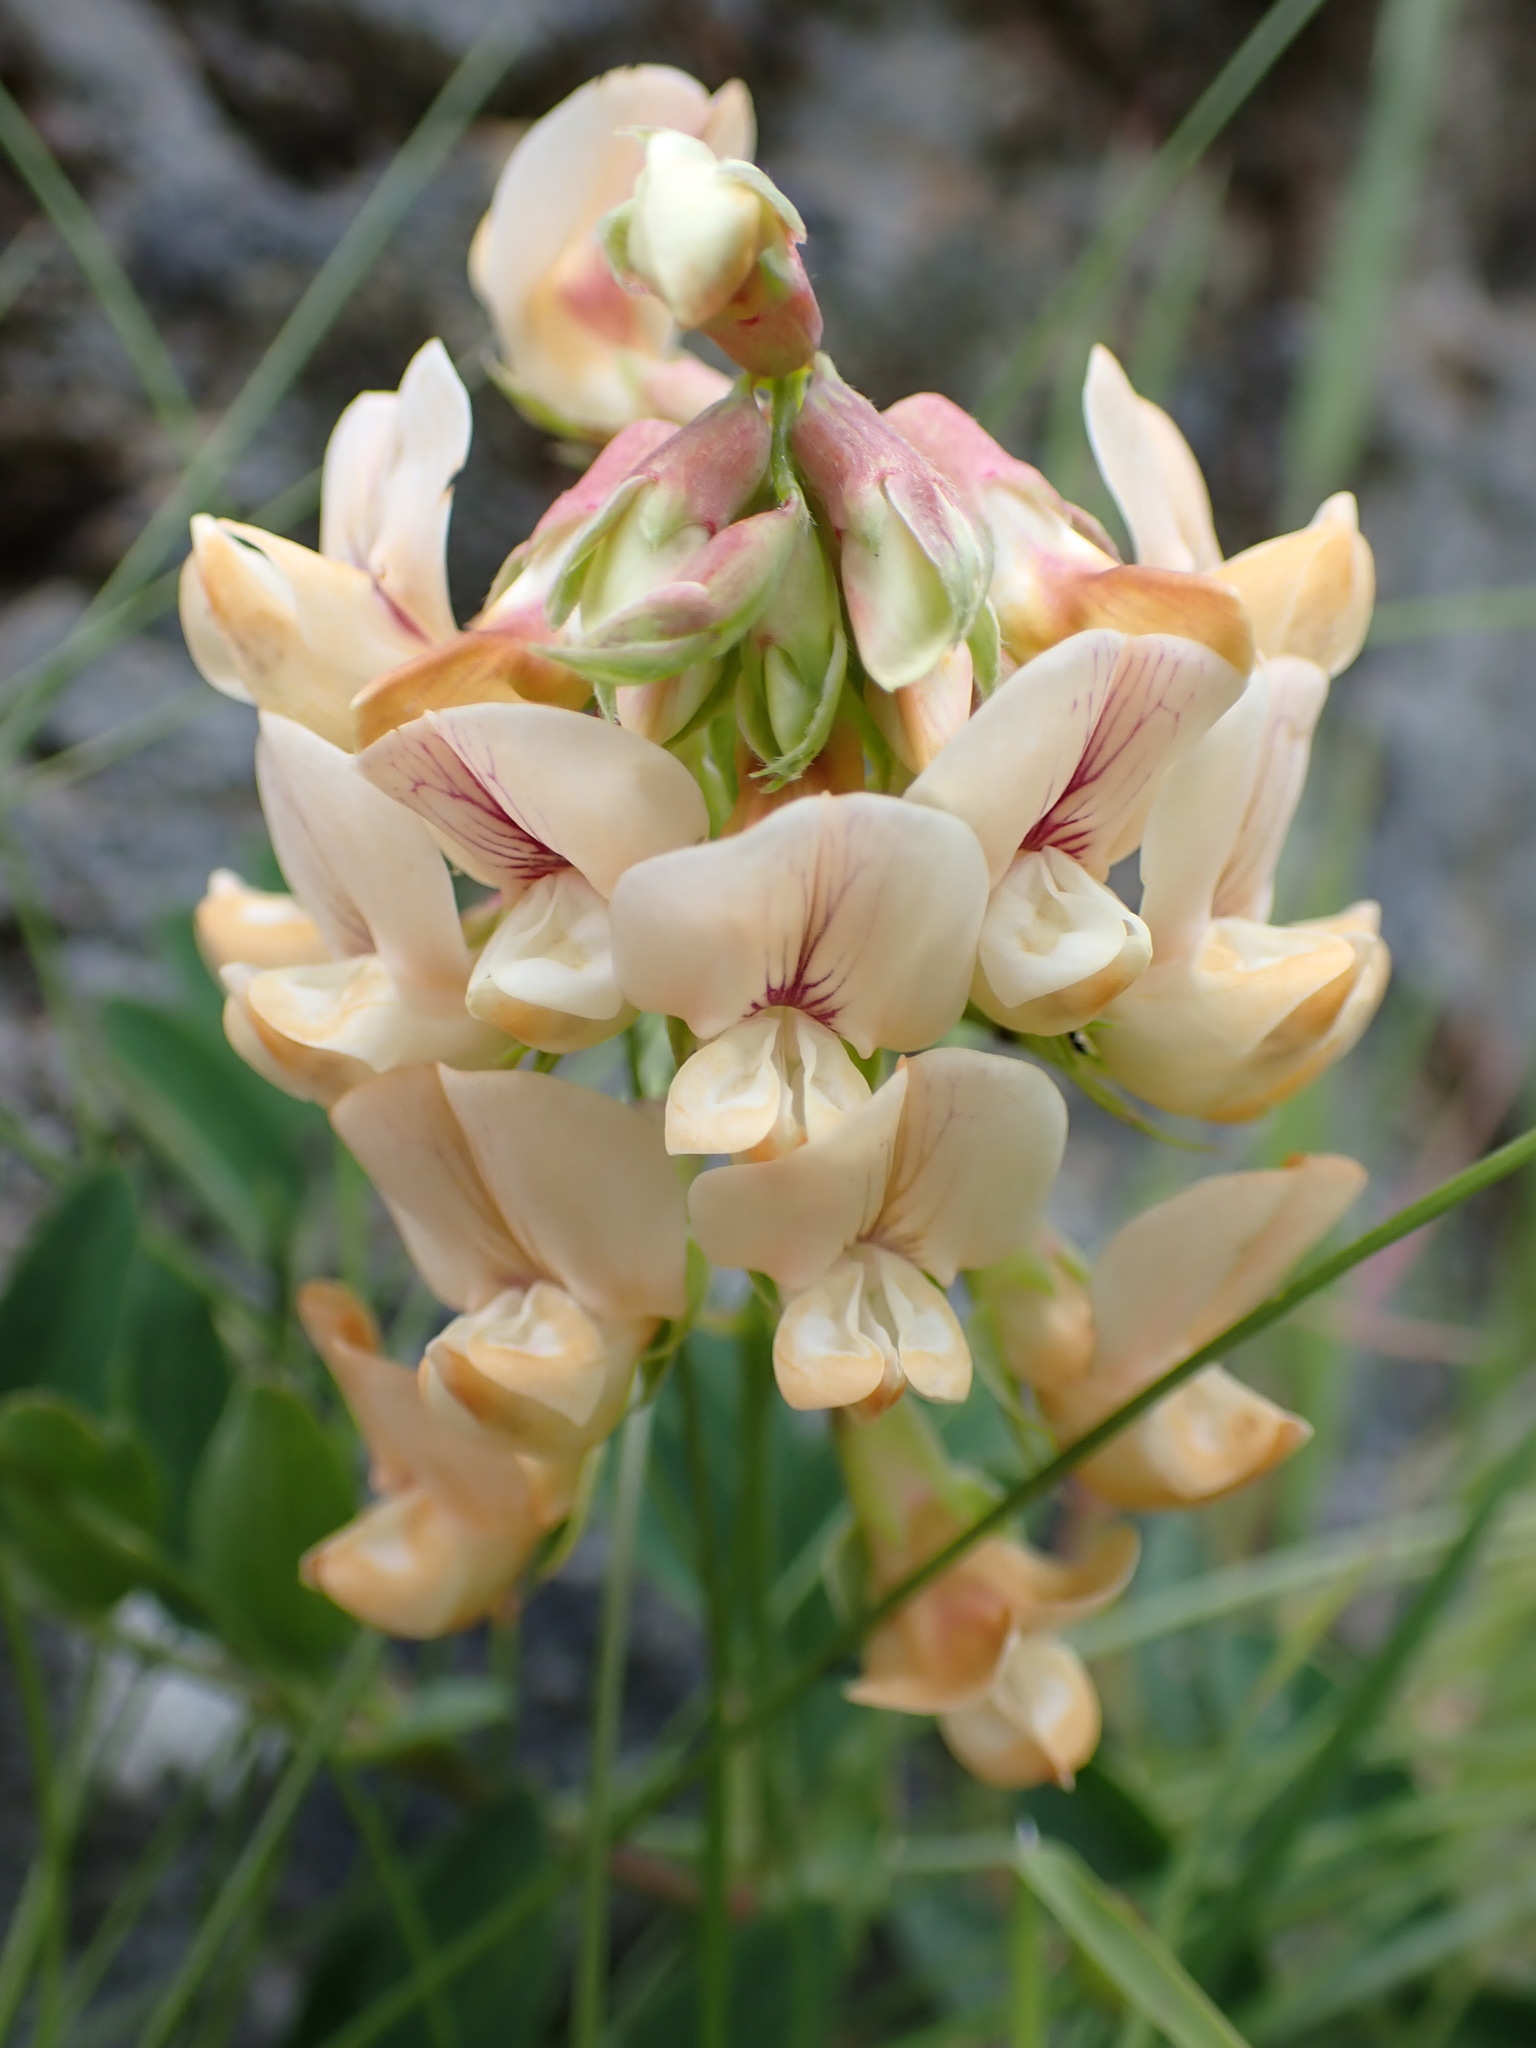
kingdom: Plantae
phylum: Tracheophyta
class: Magnoliopsida
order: Fabales
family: Fabaceae
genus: Lathyrus
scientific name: Lathyrus vestitus
